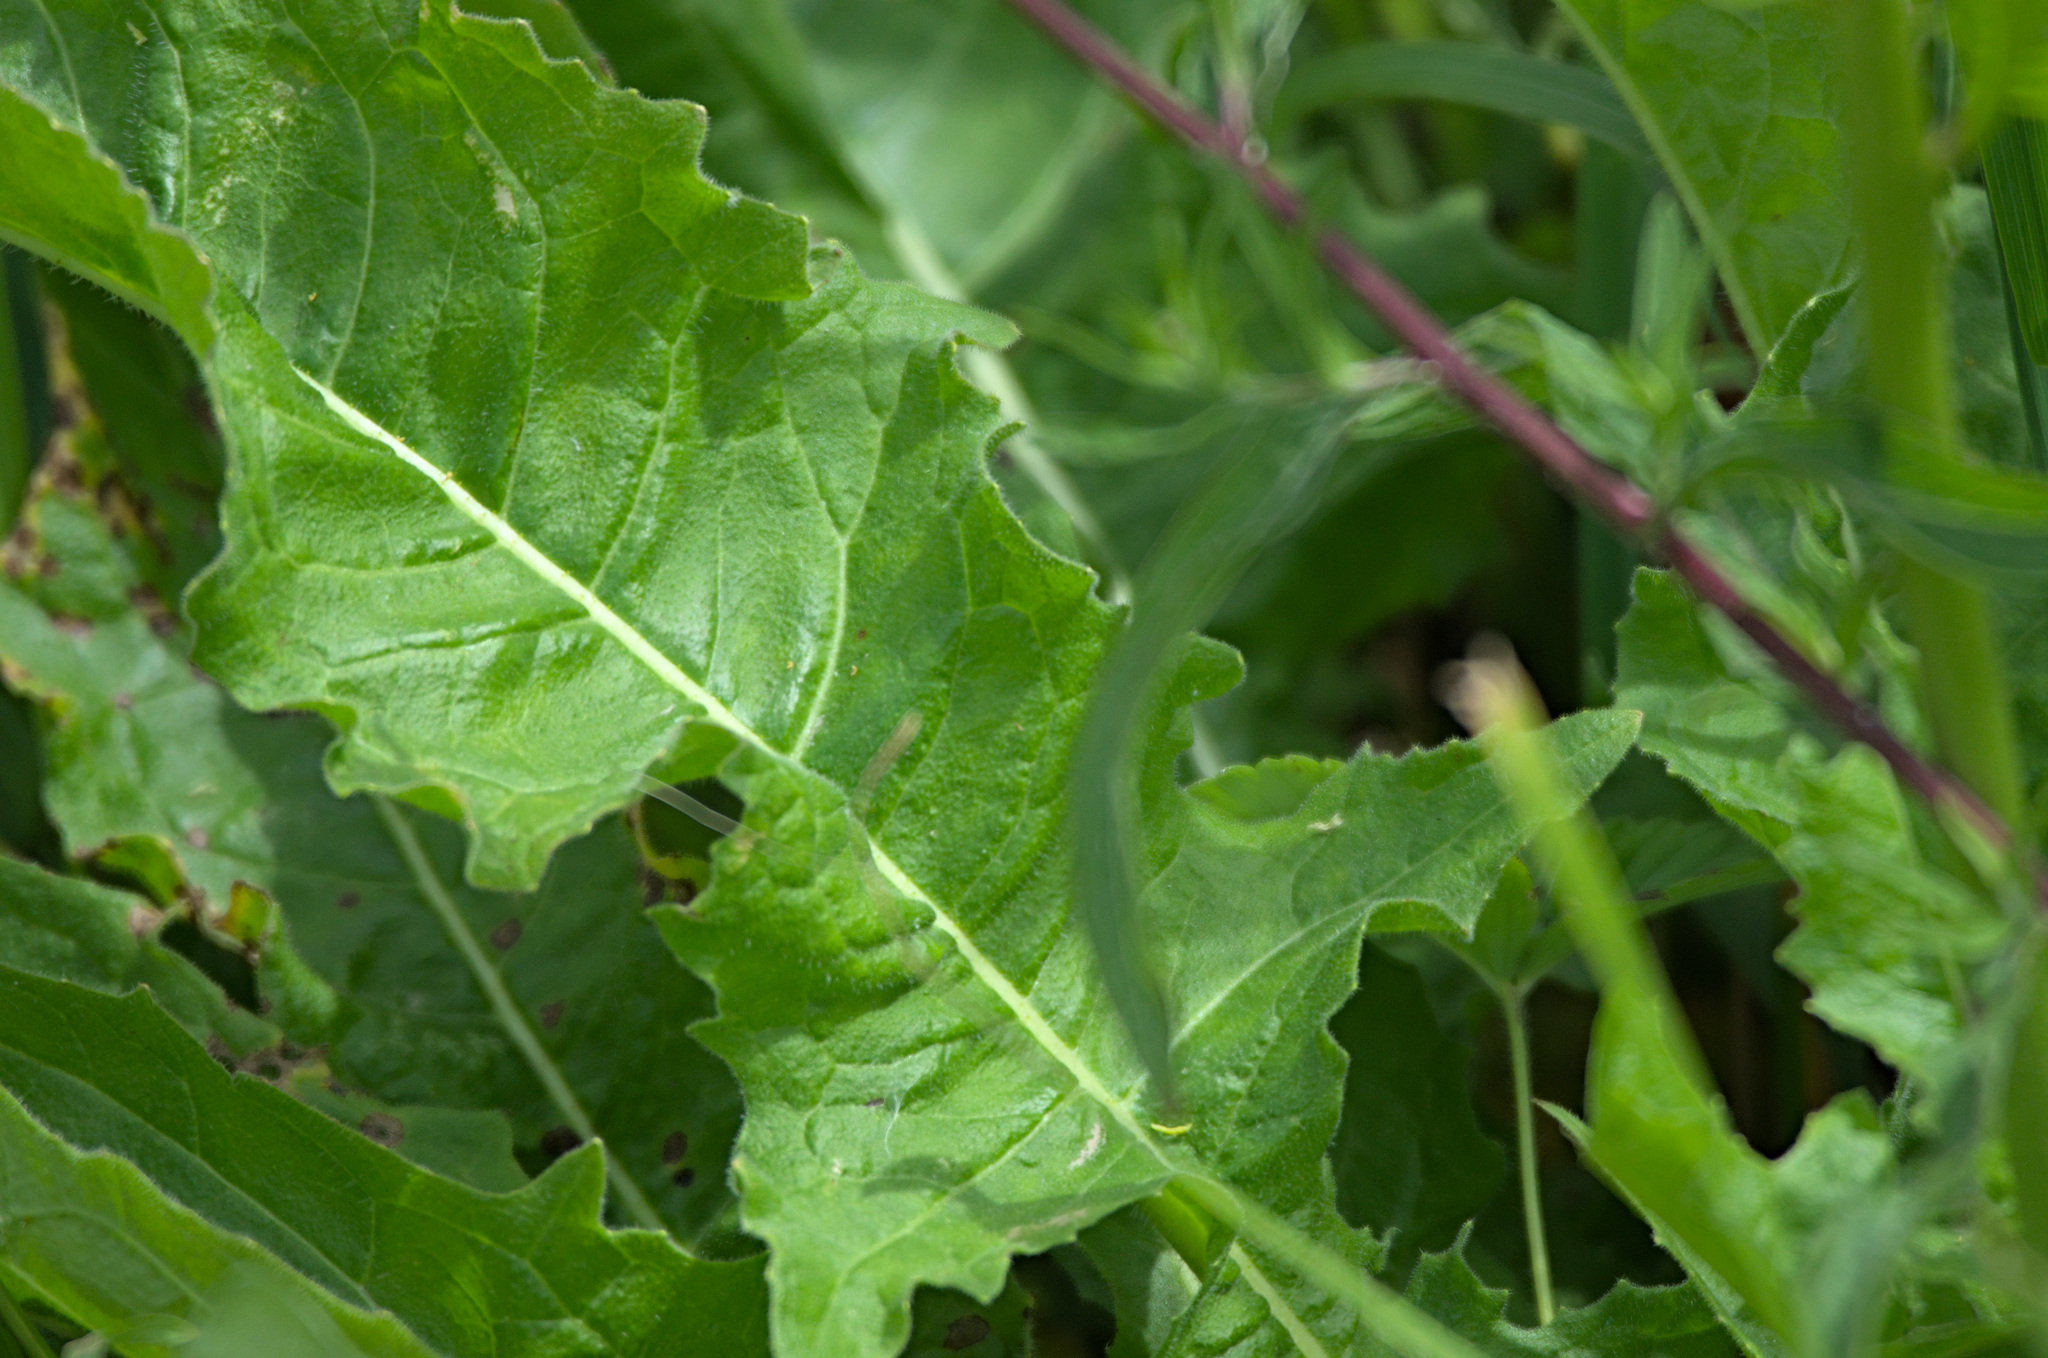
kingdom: Plantae
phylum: Tracheophyta
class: Magnoliopsida
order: Brassicales
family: Brassicaceae
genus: Bunias
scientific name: Bunias orientalis
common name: Warty-cabbage
